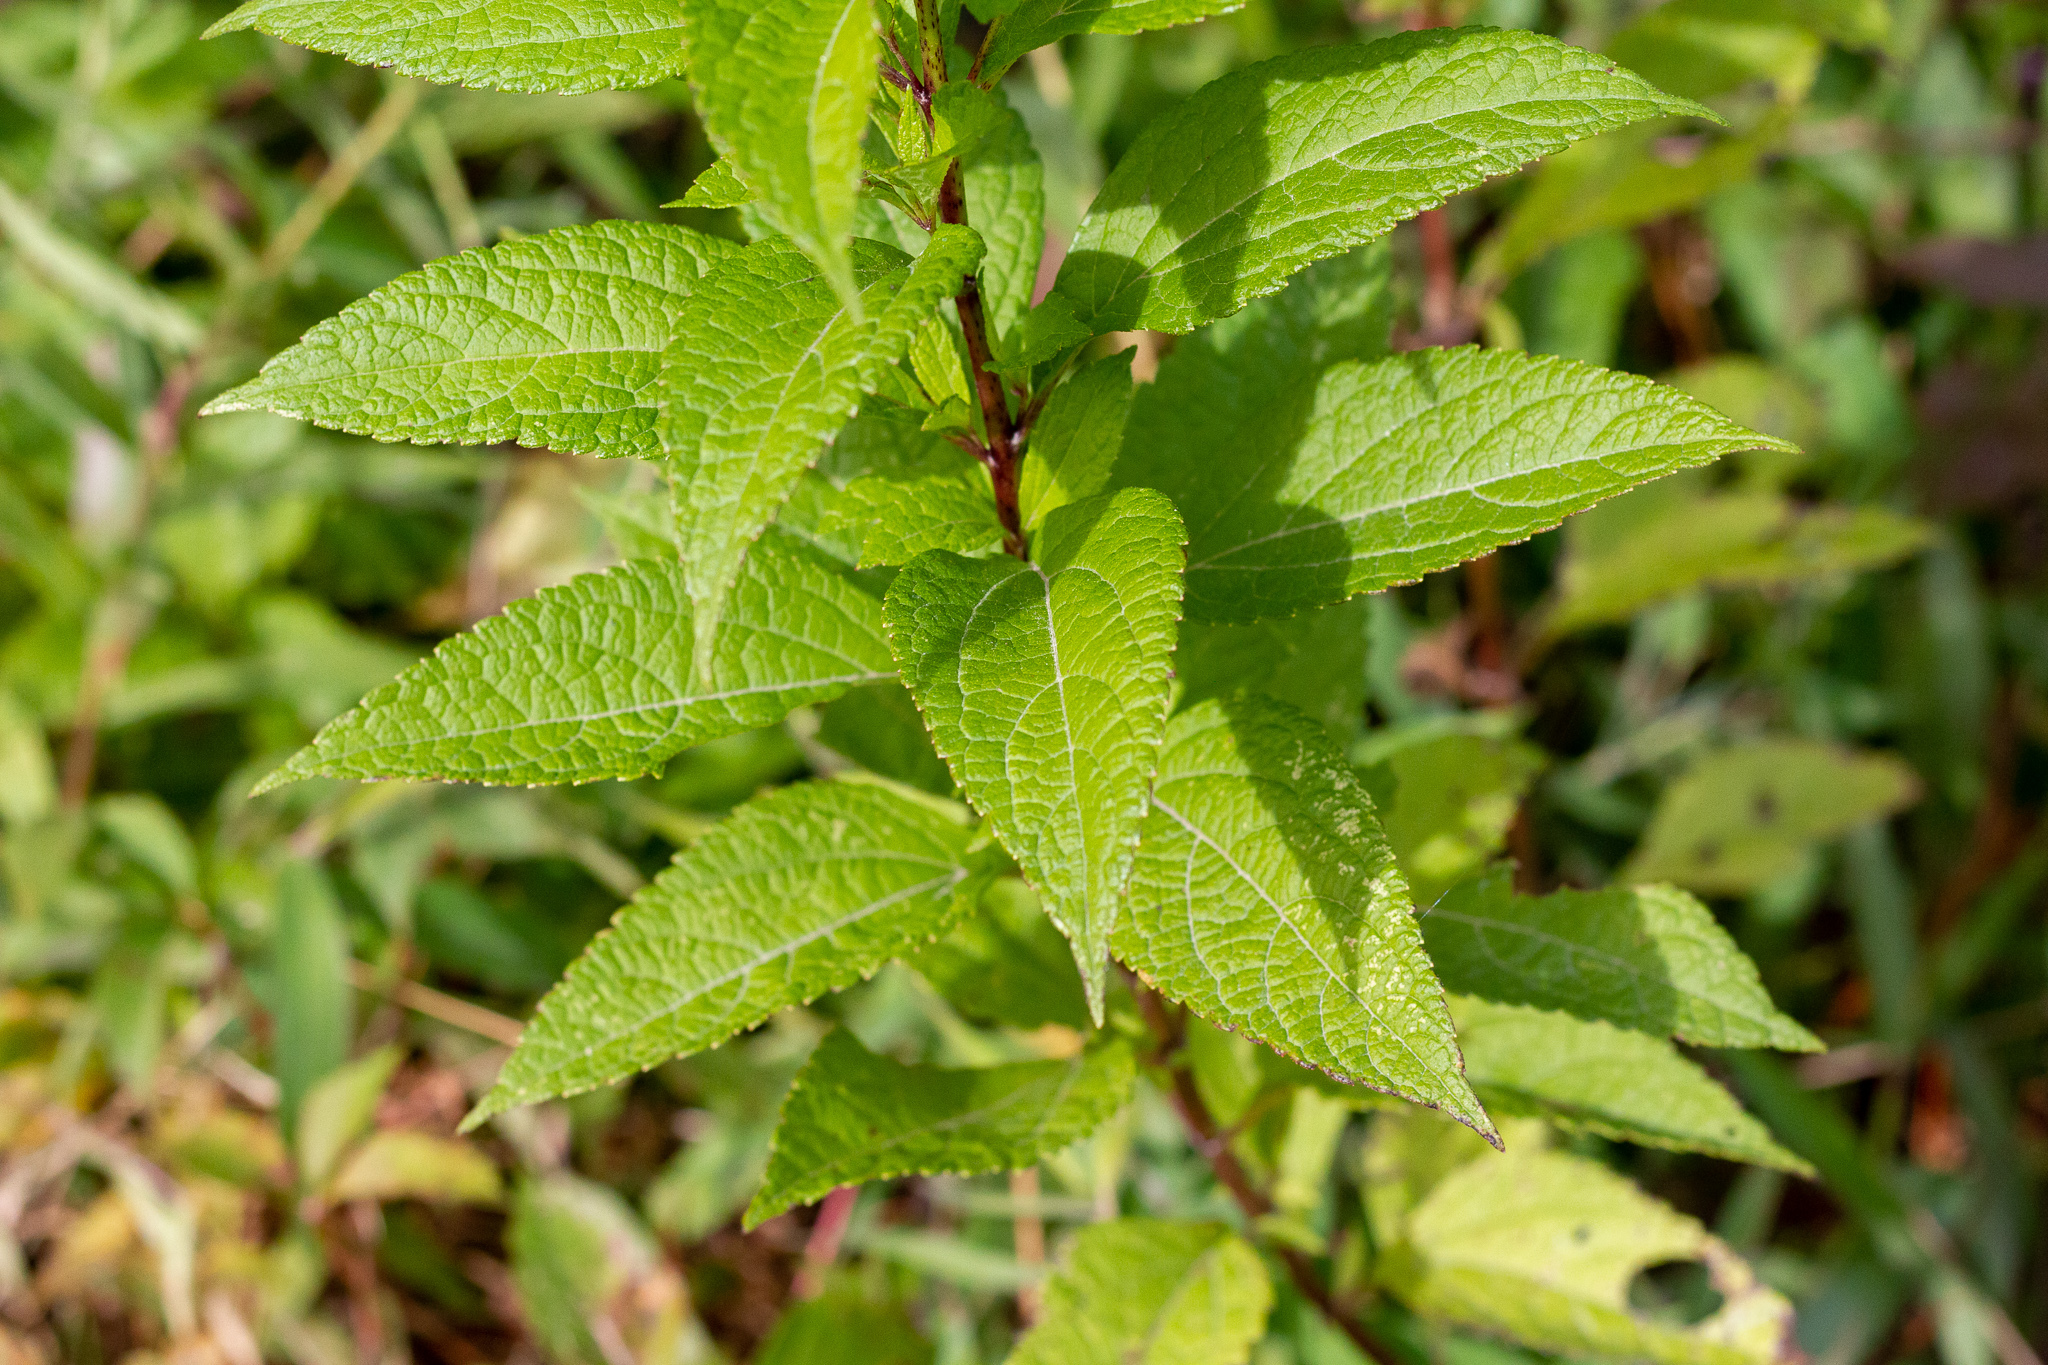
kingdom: Plantae
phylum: Tracheophyta
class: Magnoliopsida
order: Asterales
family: Asteraceae
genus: Eutrochium
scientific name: Eutrochium dubium
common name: Coastal plain joe pye weed
